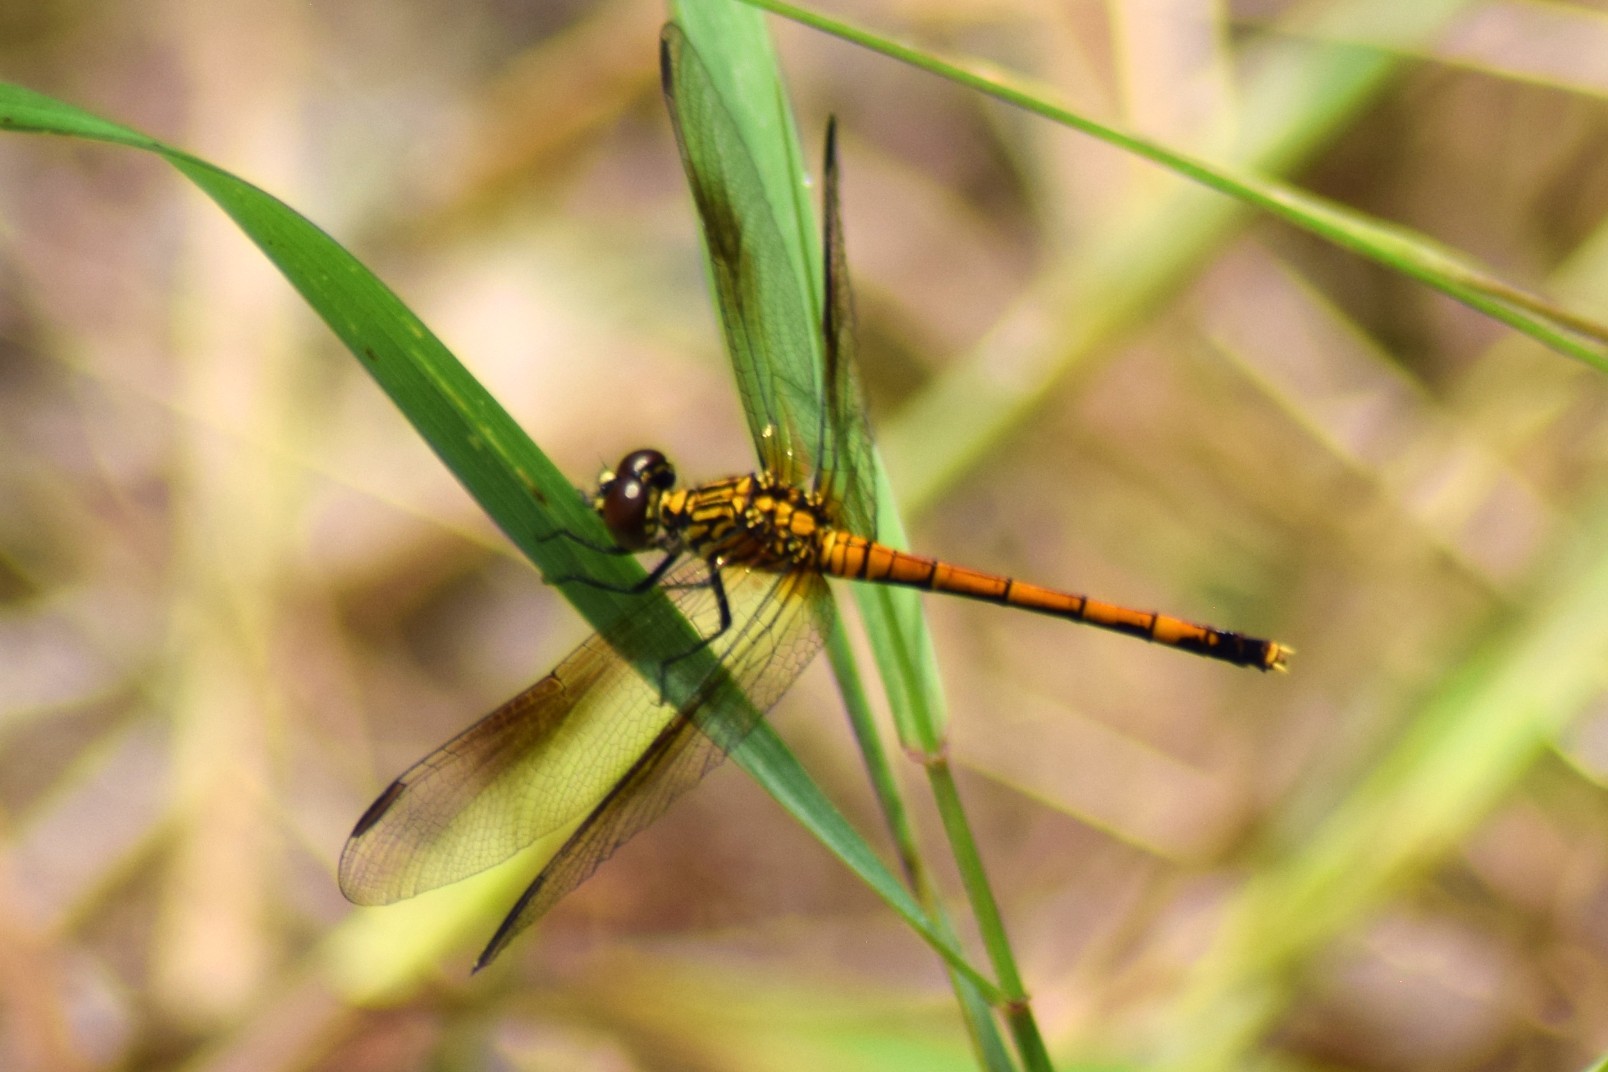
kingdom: Animalia
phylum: Arthropoda
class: Insecta
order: Odonata
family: Libellulidae
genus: Erythrodiplax
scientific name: Erythrodiplax berenice
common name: Seaside dragonlet
